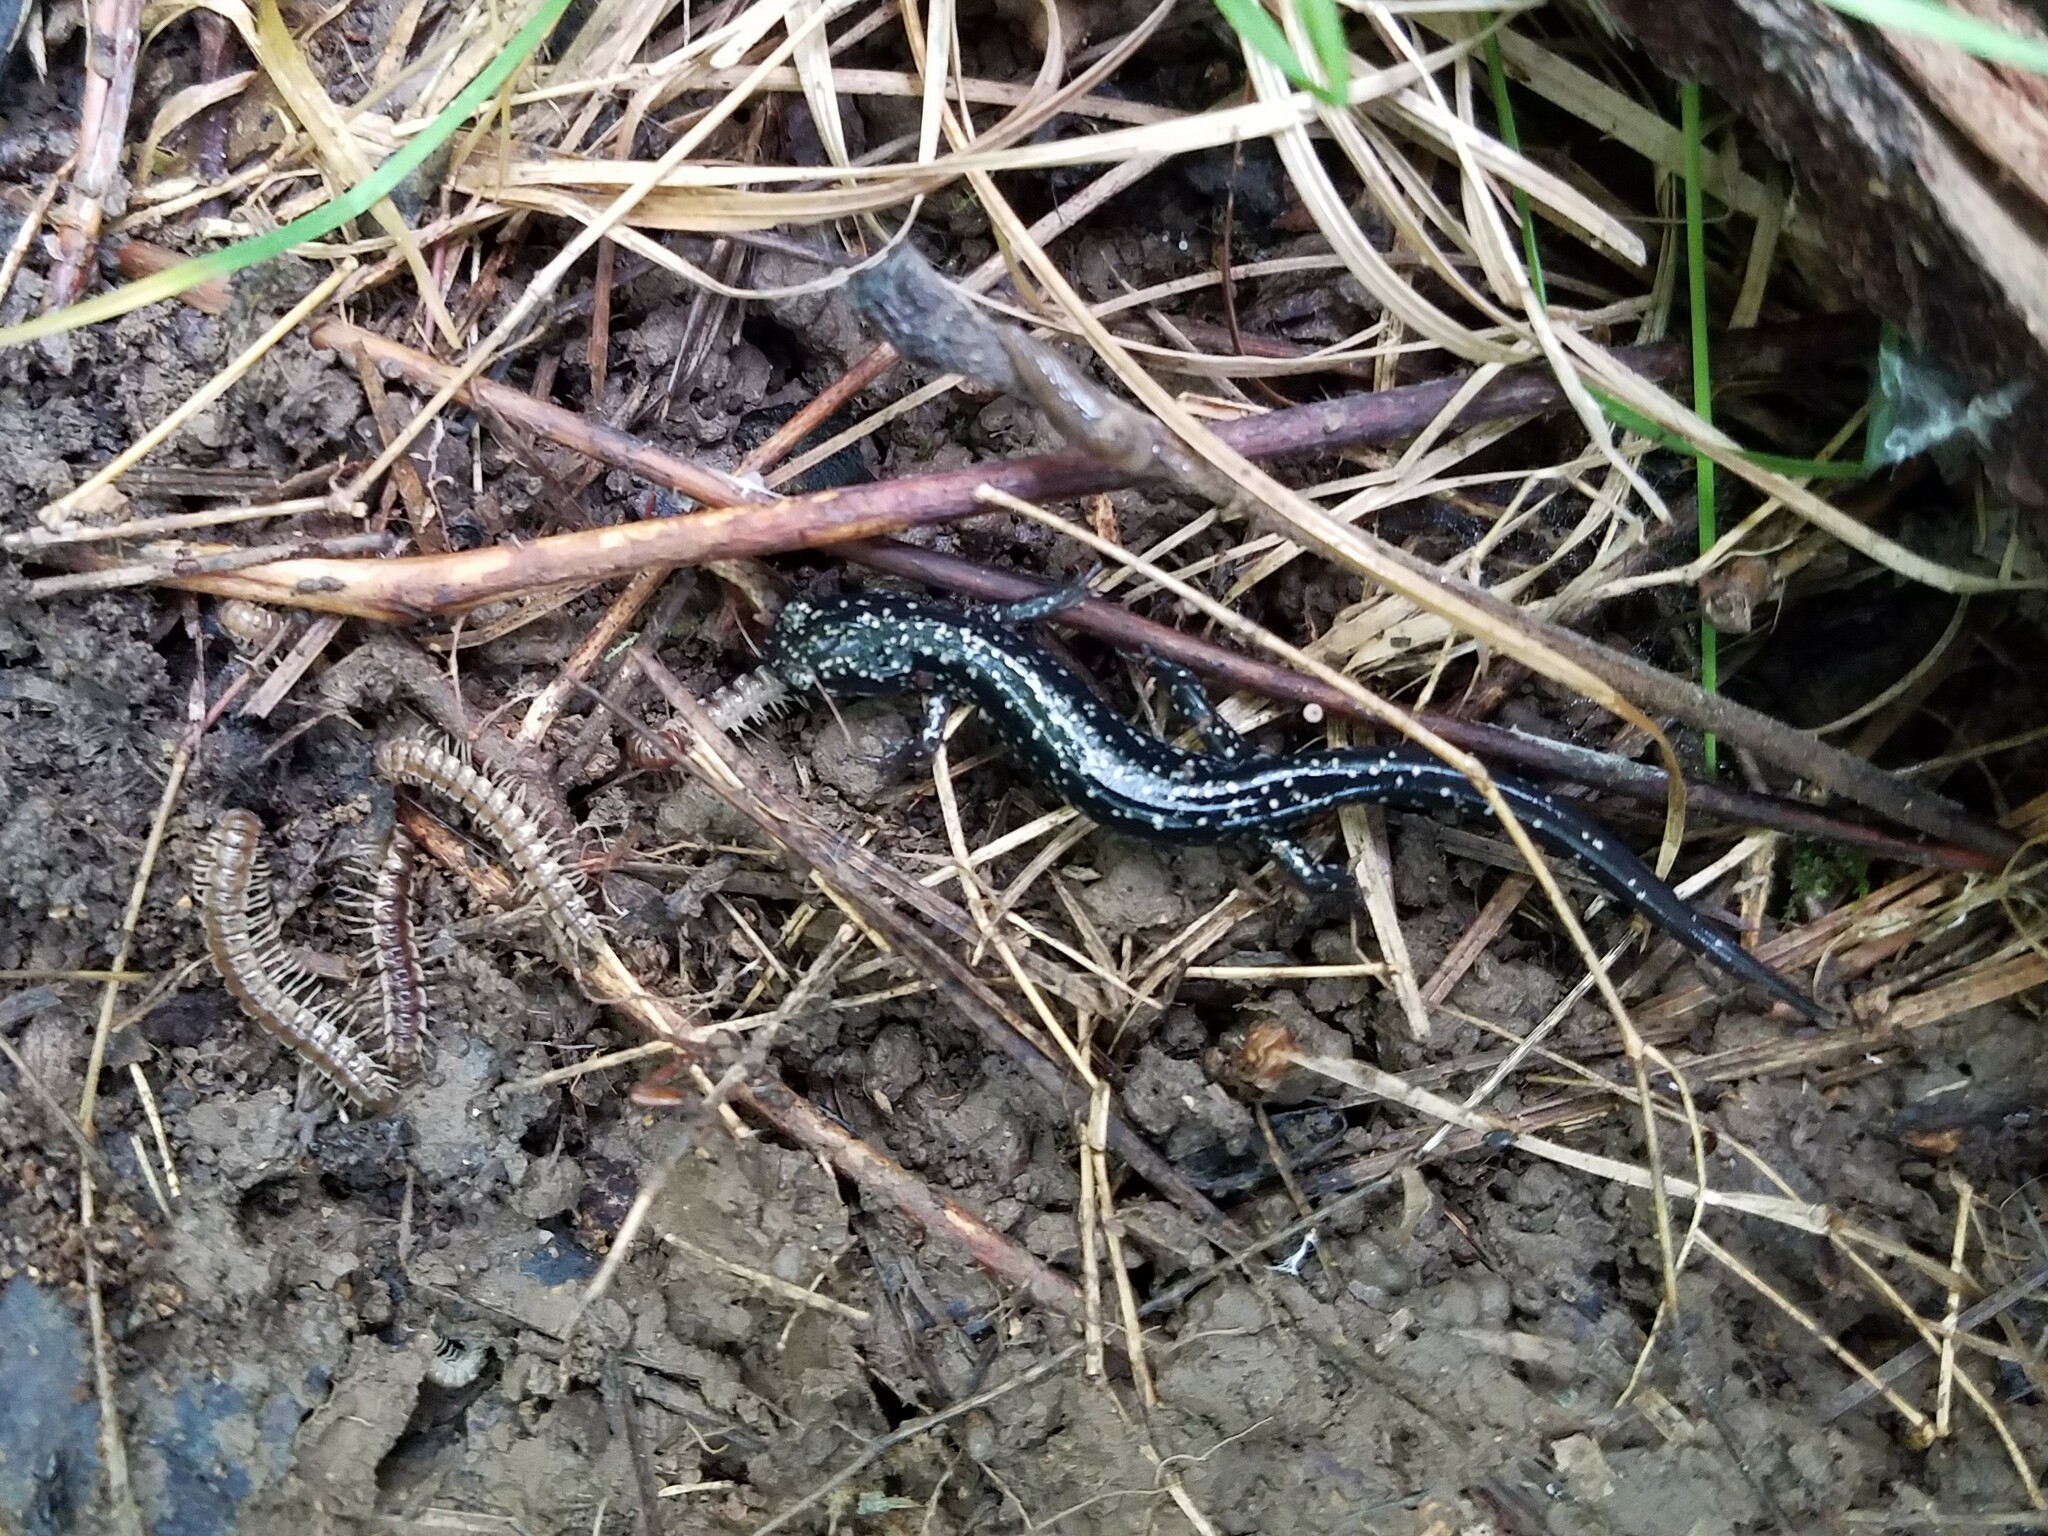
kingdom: Animalia
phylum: Chordata
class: Amphibia
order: Caudata
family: Plethodontidae
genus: Plethodon
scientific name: Plethodon glutinosus
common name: Northern slimy salamander
